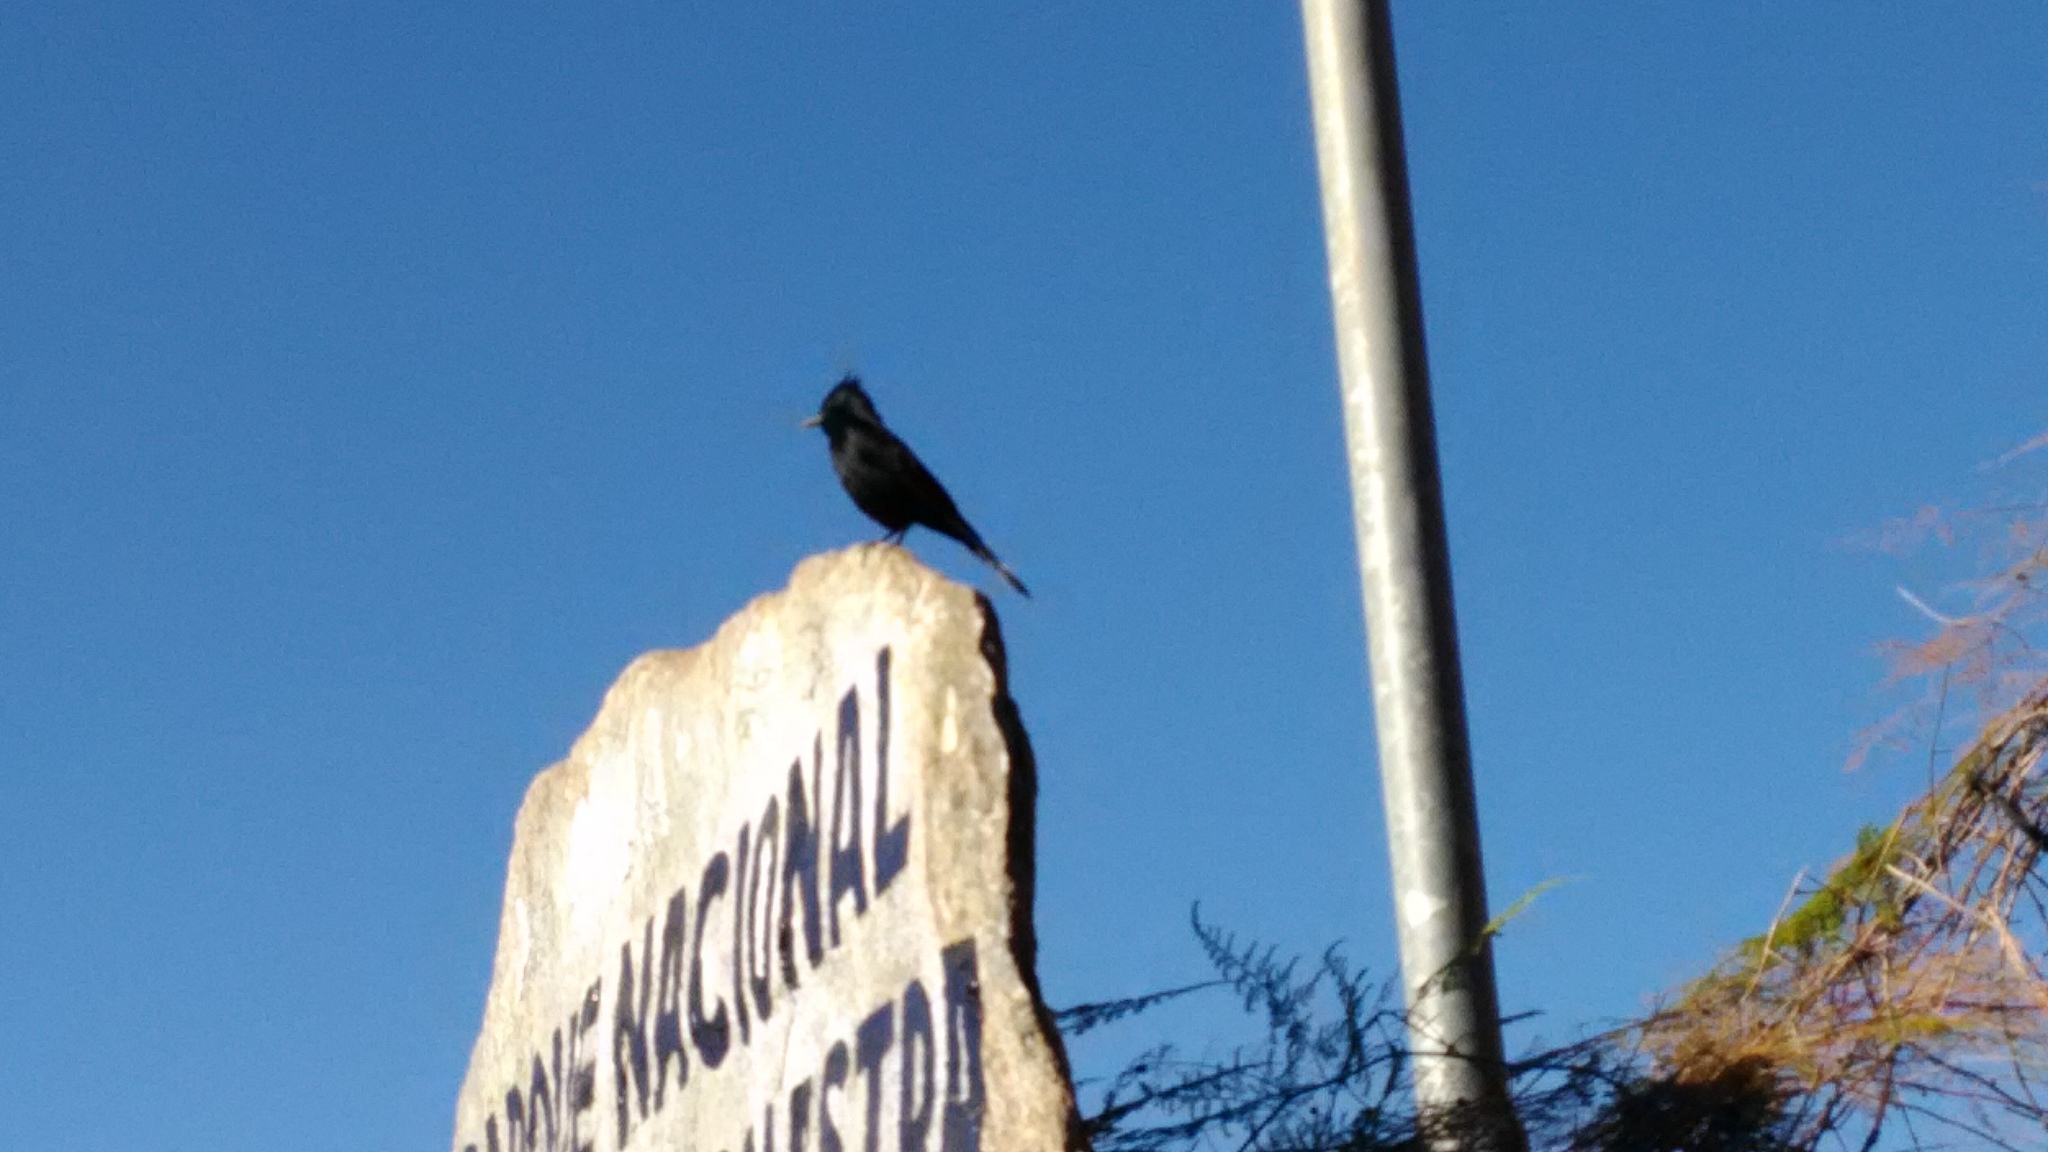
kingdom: Animalia
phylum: Chordata
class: Aves
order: Passeriformes
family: Tyrannidae
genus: Knipolegus
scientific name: Knipolegus lophotes
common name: Crested black tyrant
